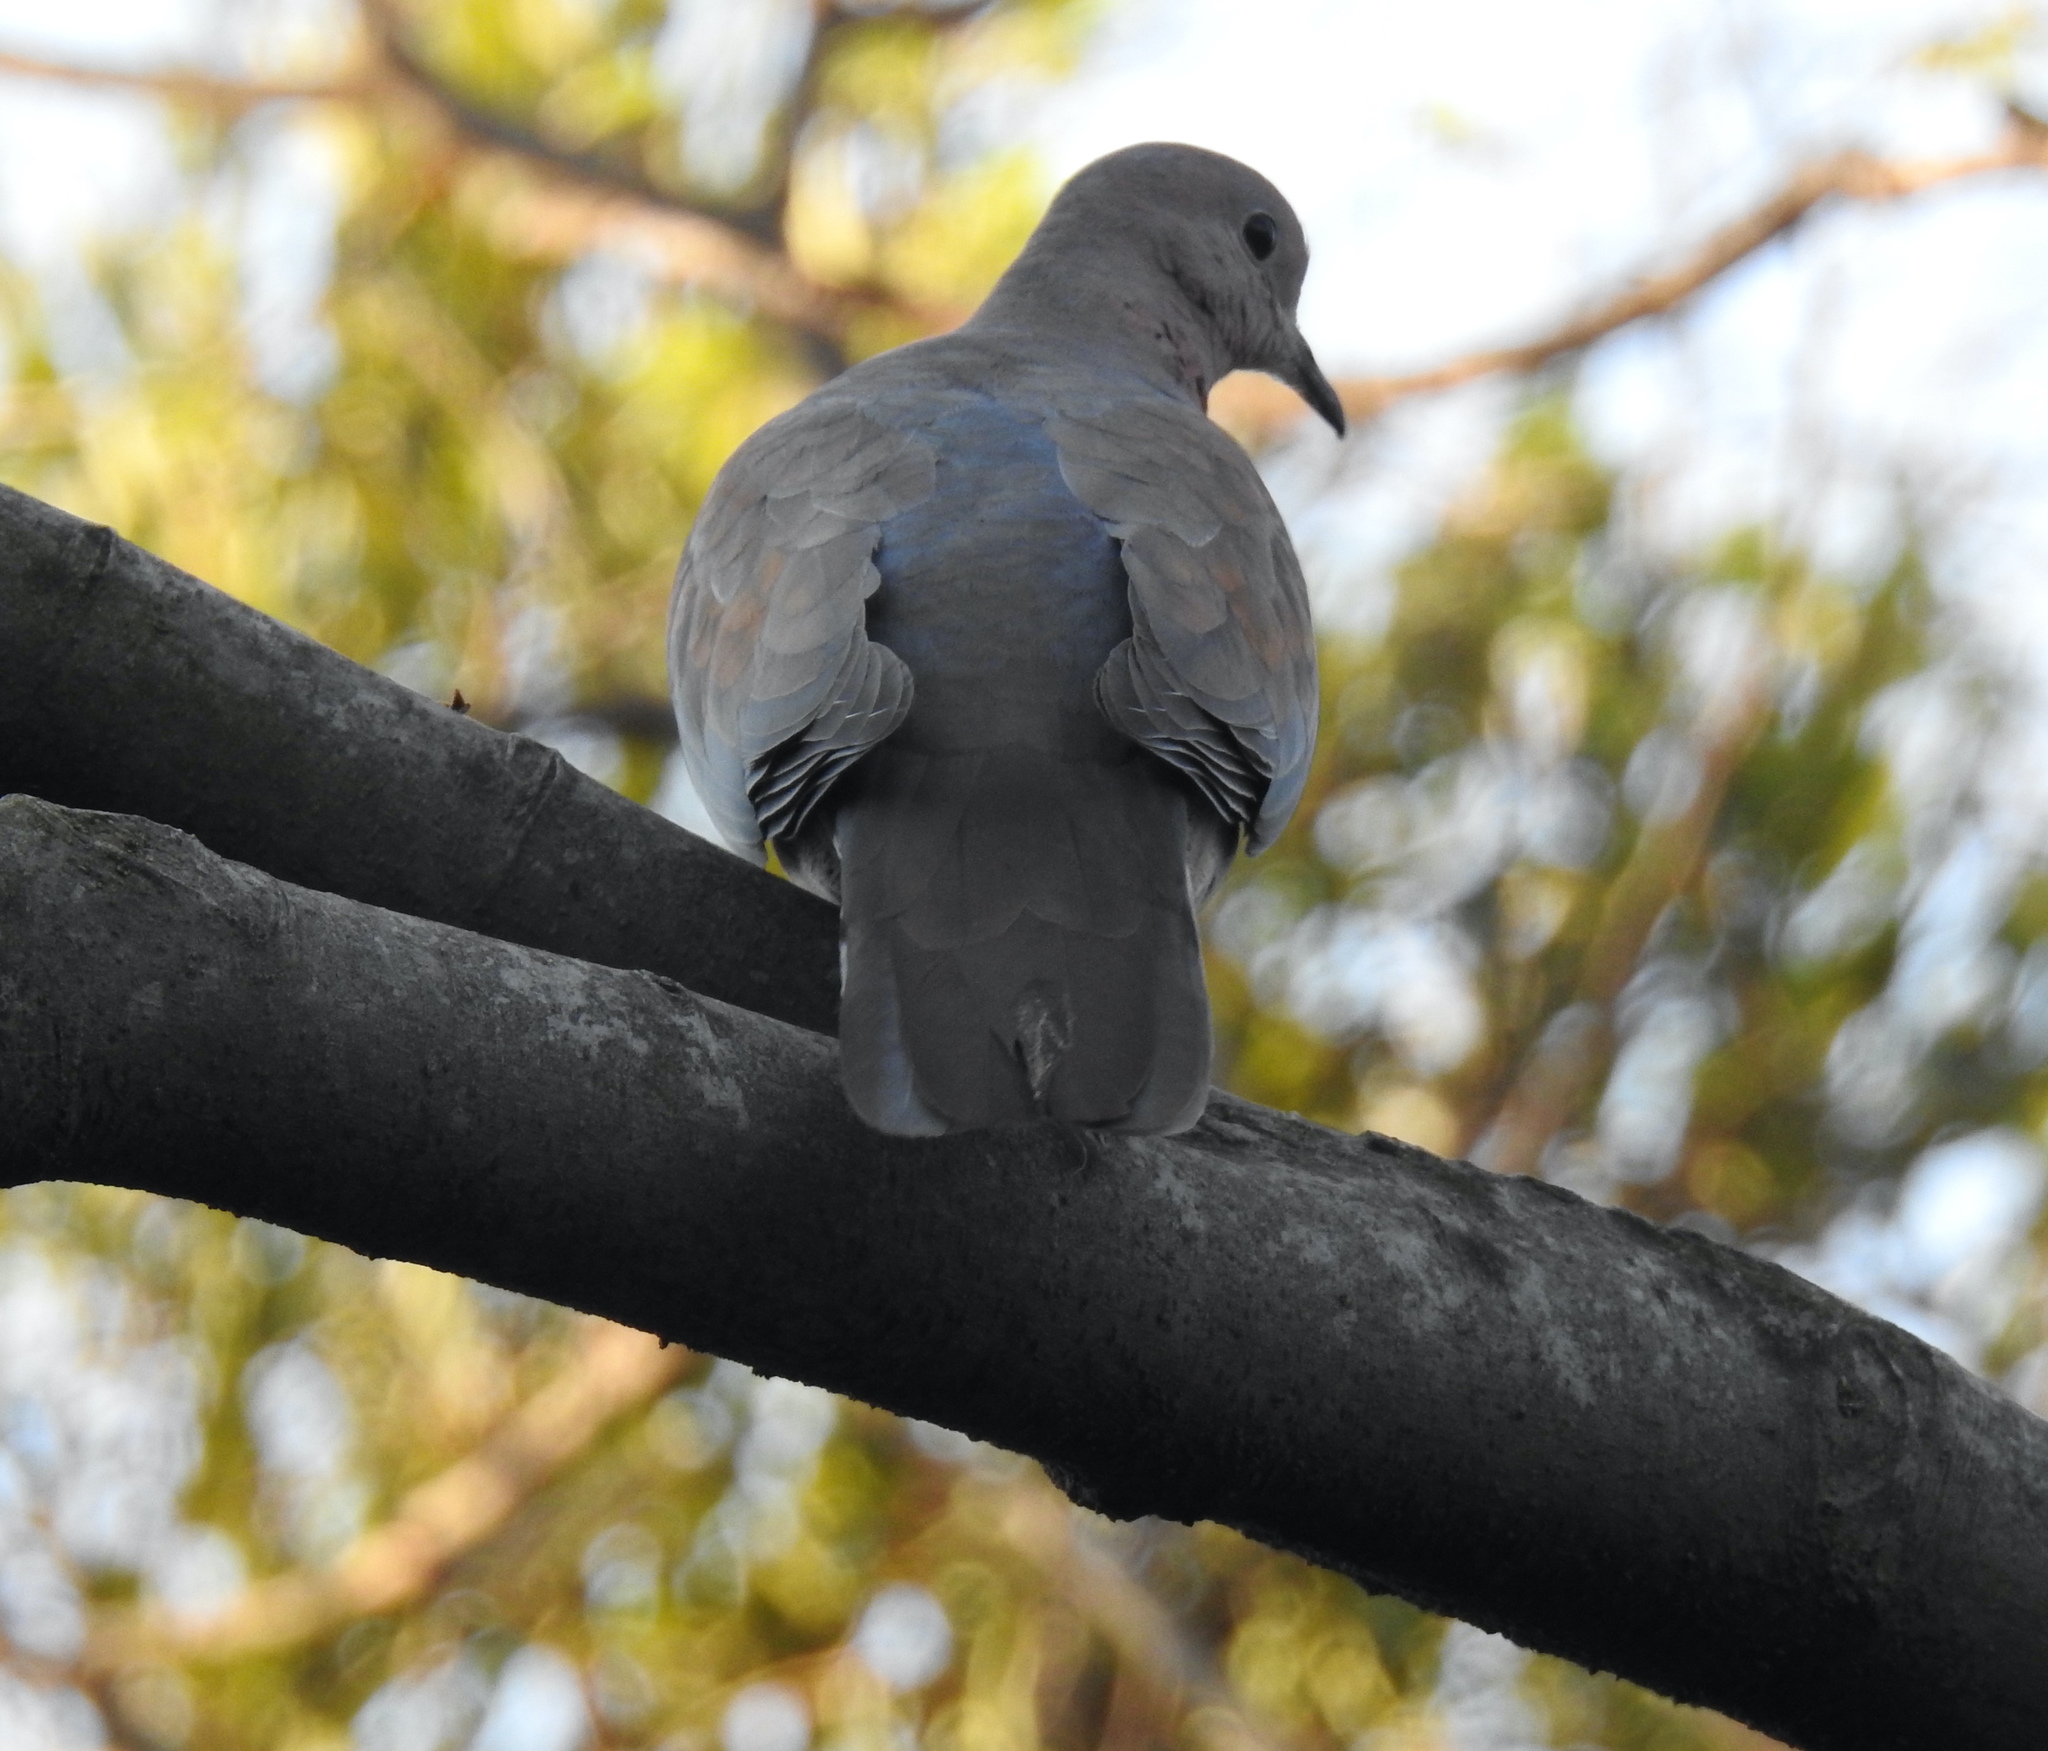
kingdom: Animalia
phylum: Chordata
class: Aves
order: Columbiformes
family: Columbidae
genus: Spilopelia
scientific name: Spilopelia senegalensis
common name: Laughing dove
